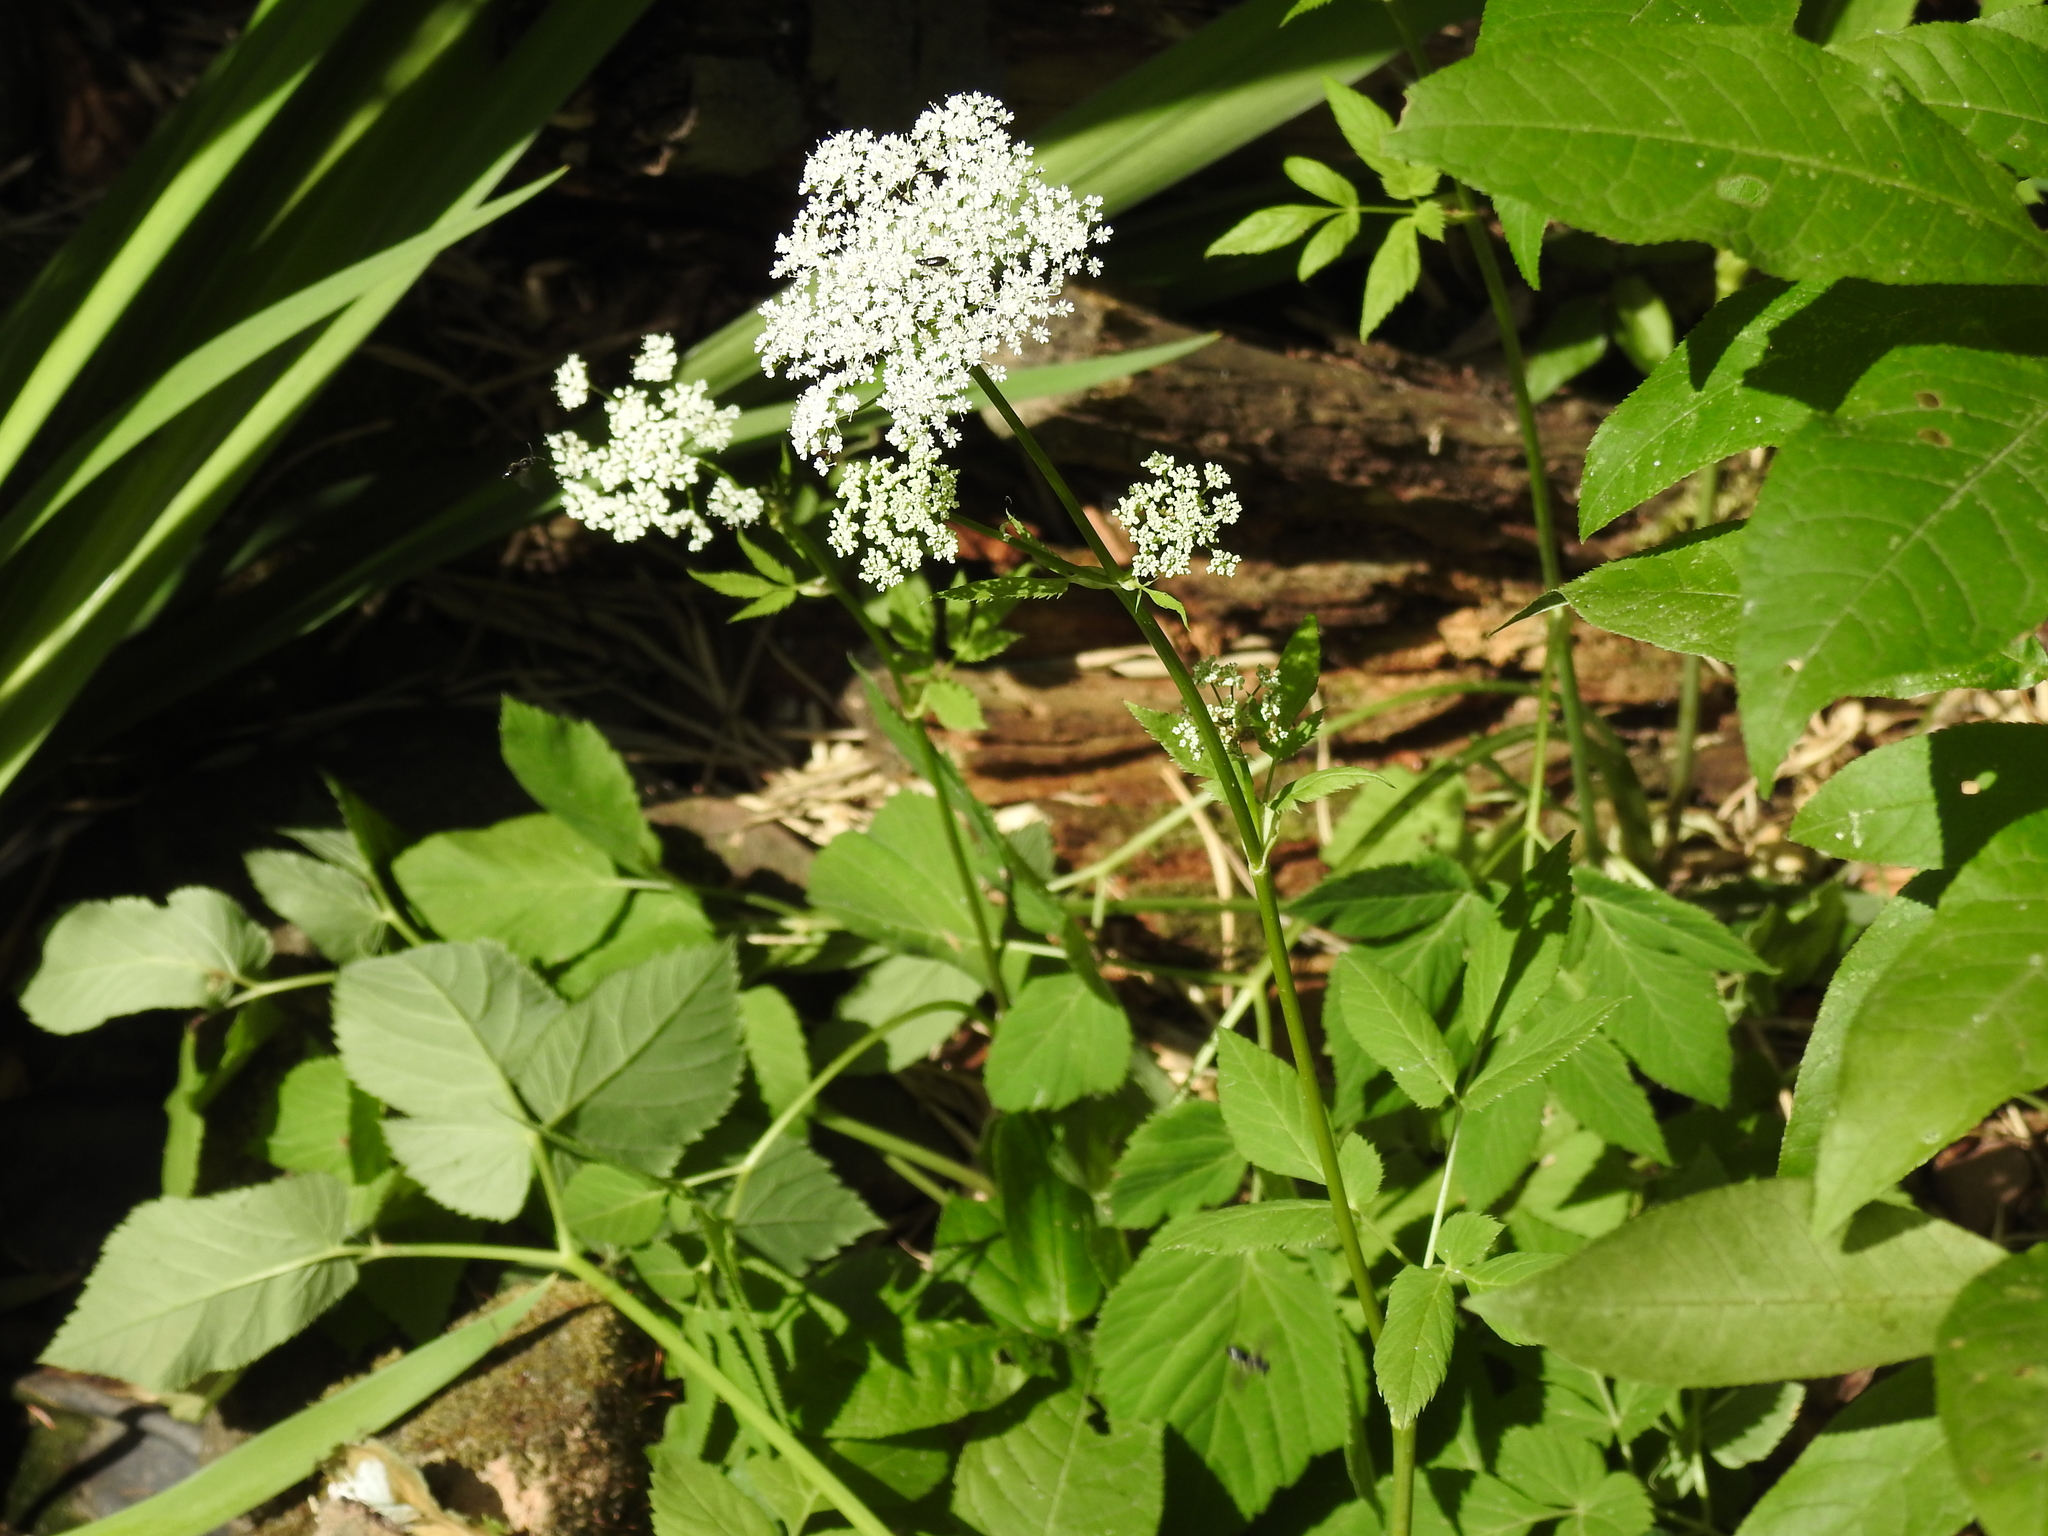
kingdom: Plantae
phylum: Tracheophyta
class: Magnoliopsida
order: Apiales
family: Apiaceae
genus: Aegopodium
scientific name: Aegopodium podagraria
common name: Ground-elder
